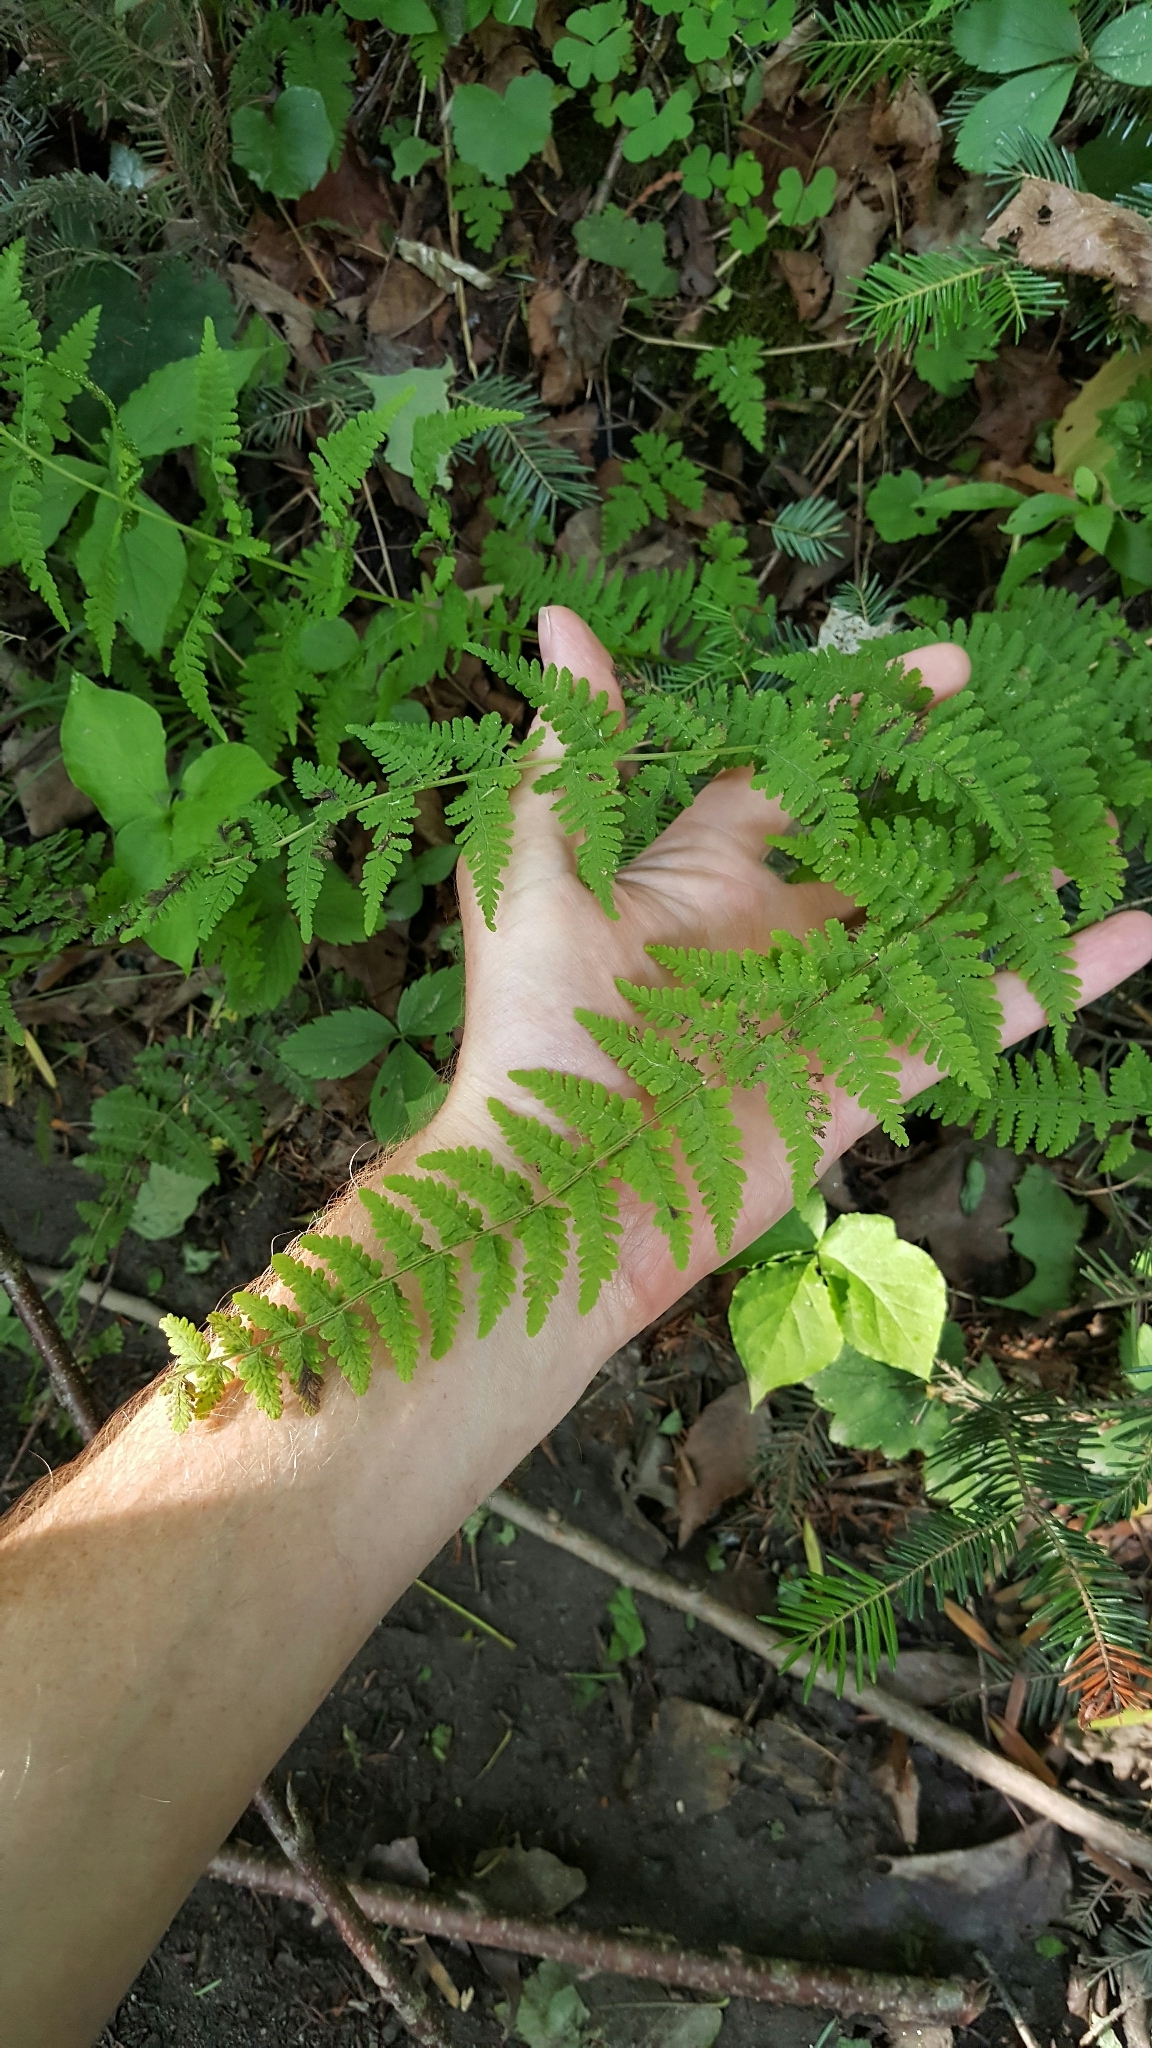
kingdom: Plantae
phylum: Tracheophyta
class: Pinopsida
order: Pinales
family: Pinaceae
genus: Abies
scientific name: Abies balsamea
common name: Balsam fir
